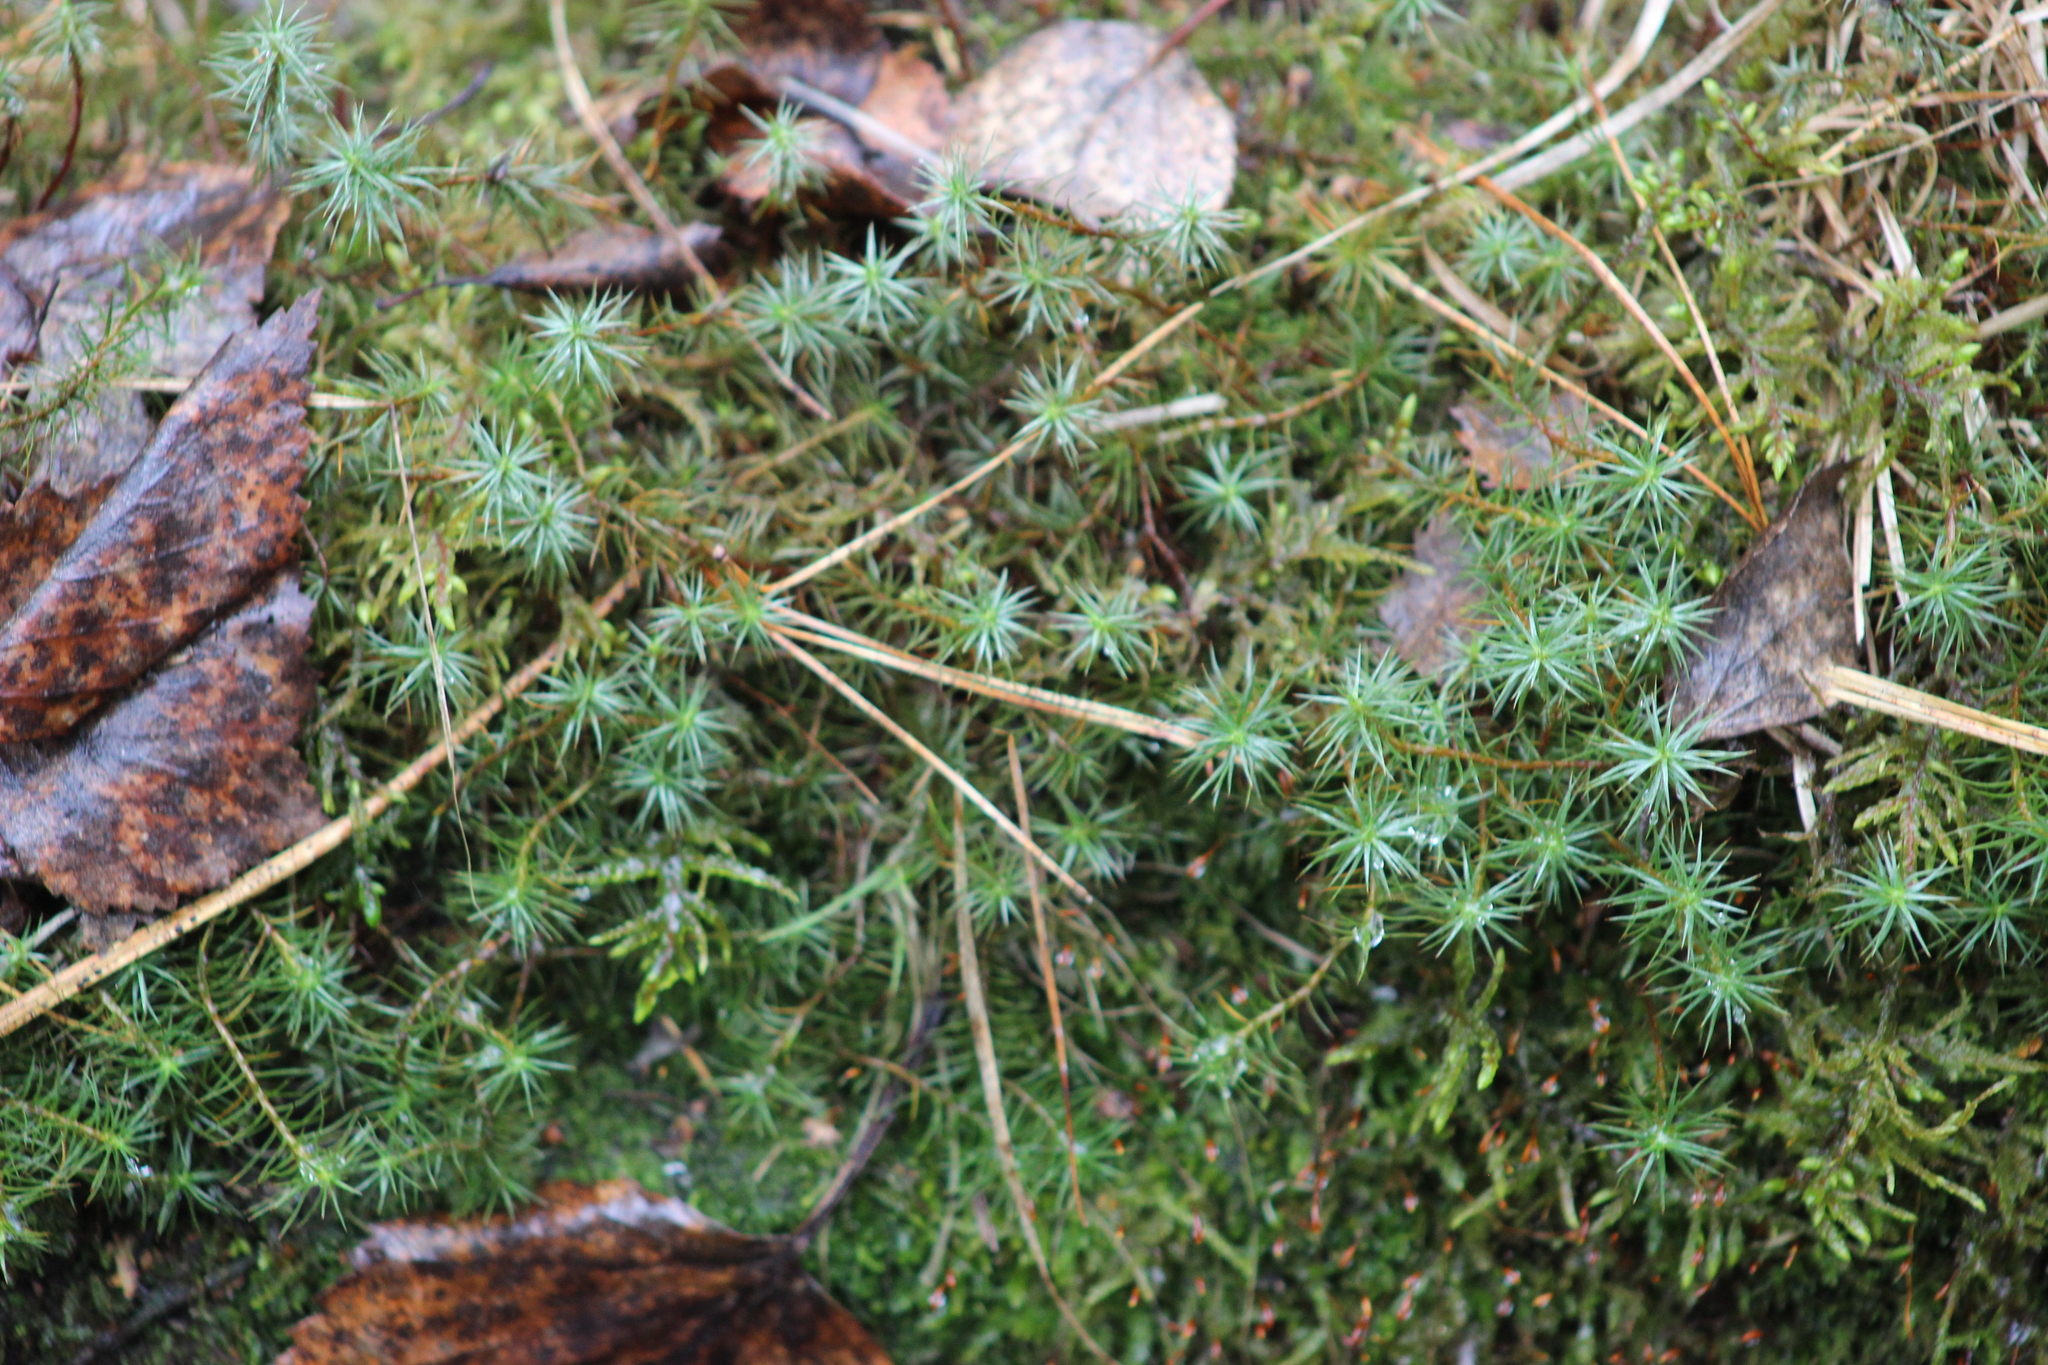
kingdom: Plantae
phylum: Bryophyta
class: Polytrichopsida
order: Polytrichales
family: Polytrichaceae
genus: Polytrichum
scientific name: Polytrichum juniperinum
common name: Juniper haircap moss
